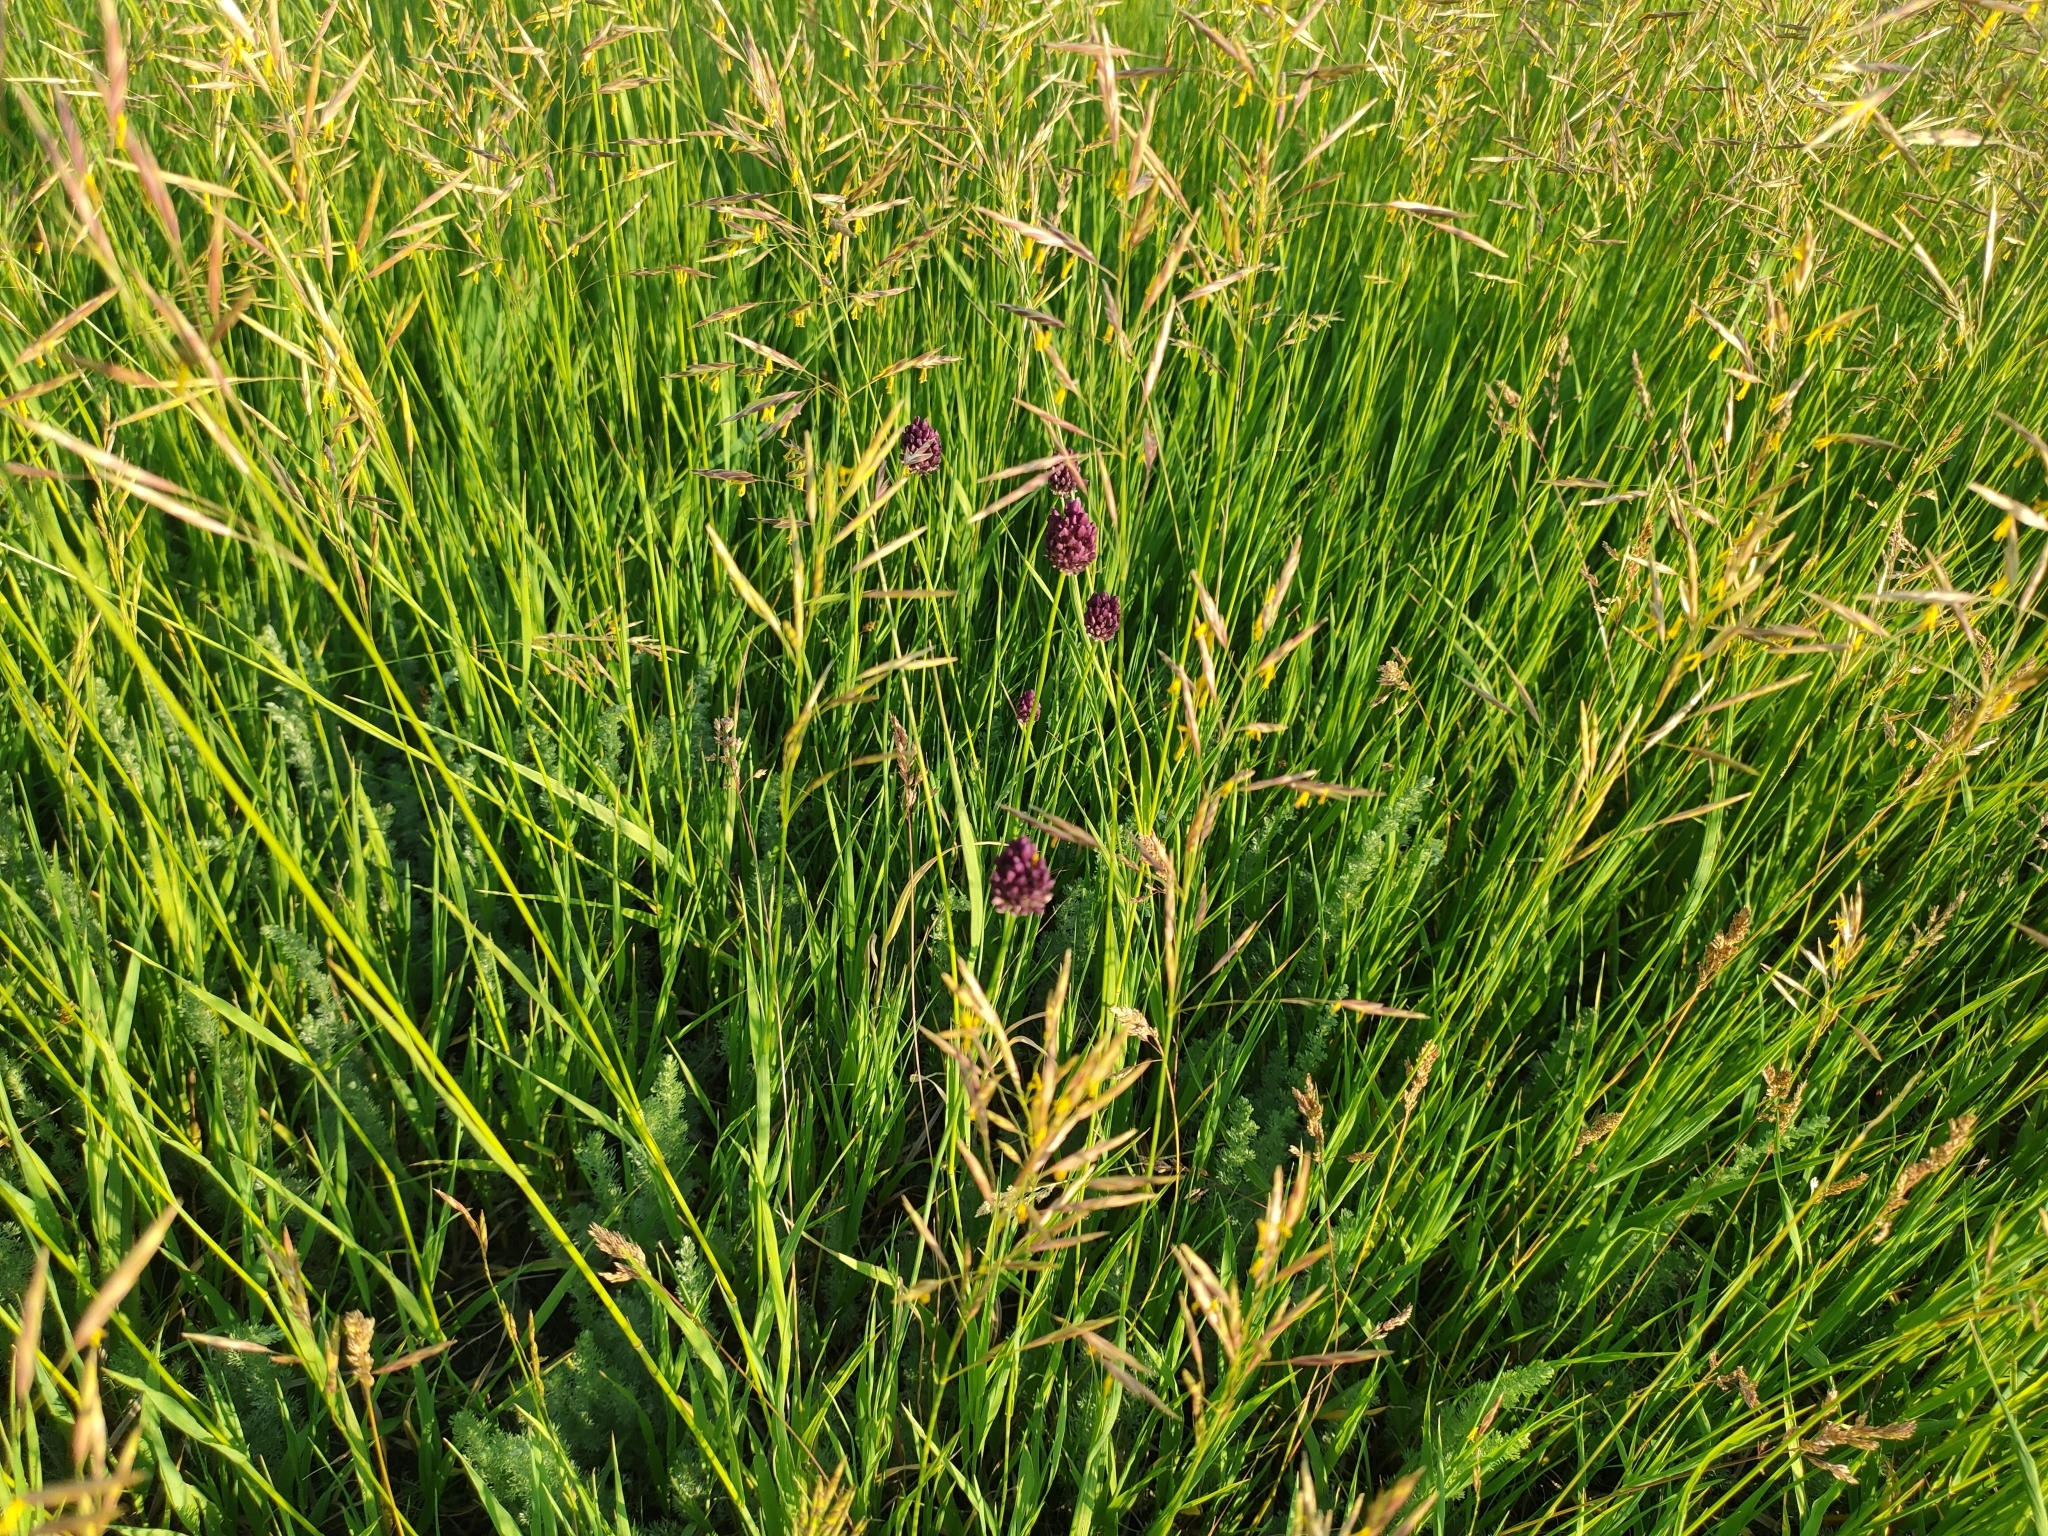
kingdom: Plantae
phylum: Tracheophyta
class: Liliopsida
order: Asparagales
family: Amaryllidaceae
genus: Allium
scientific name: Allium rotundum
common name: Sand leek
